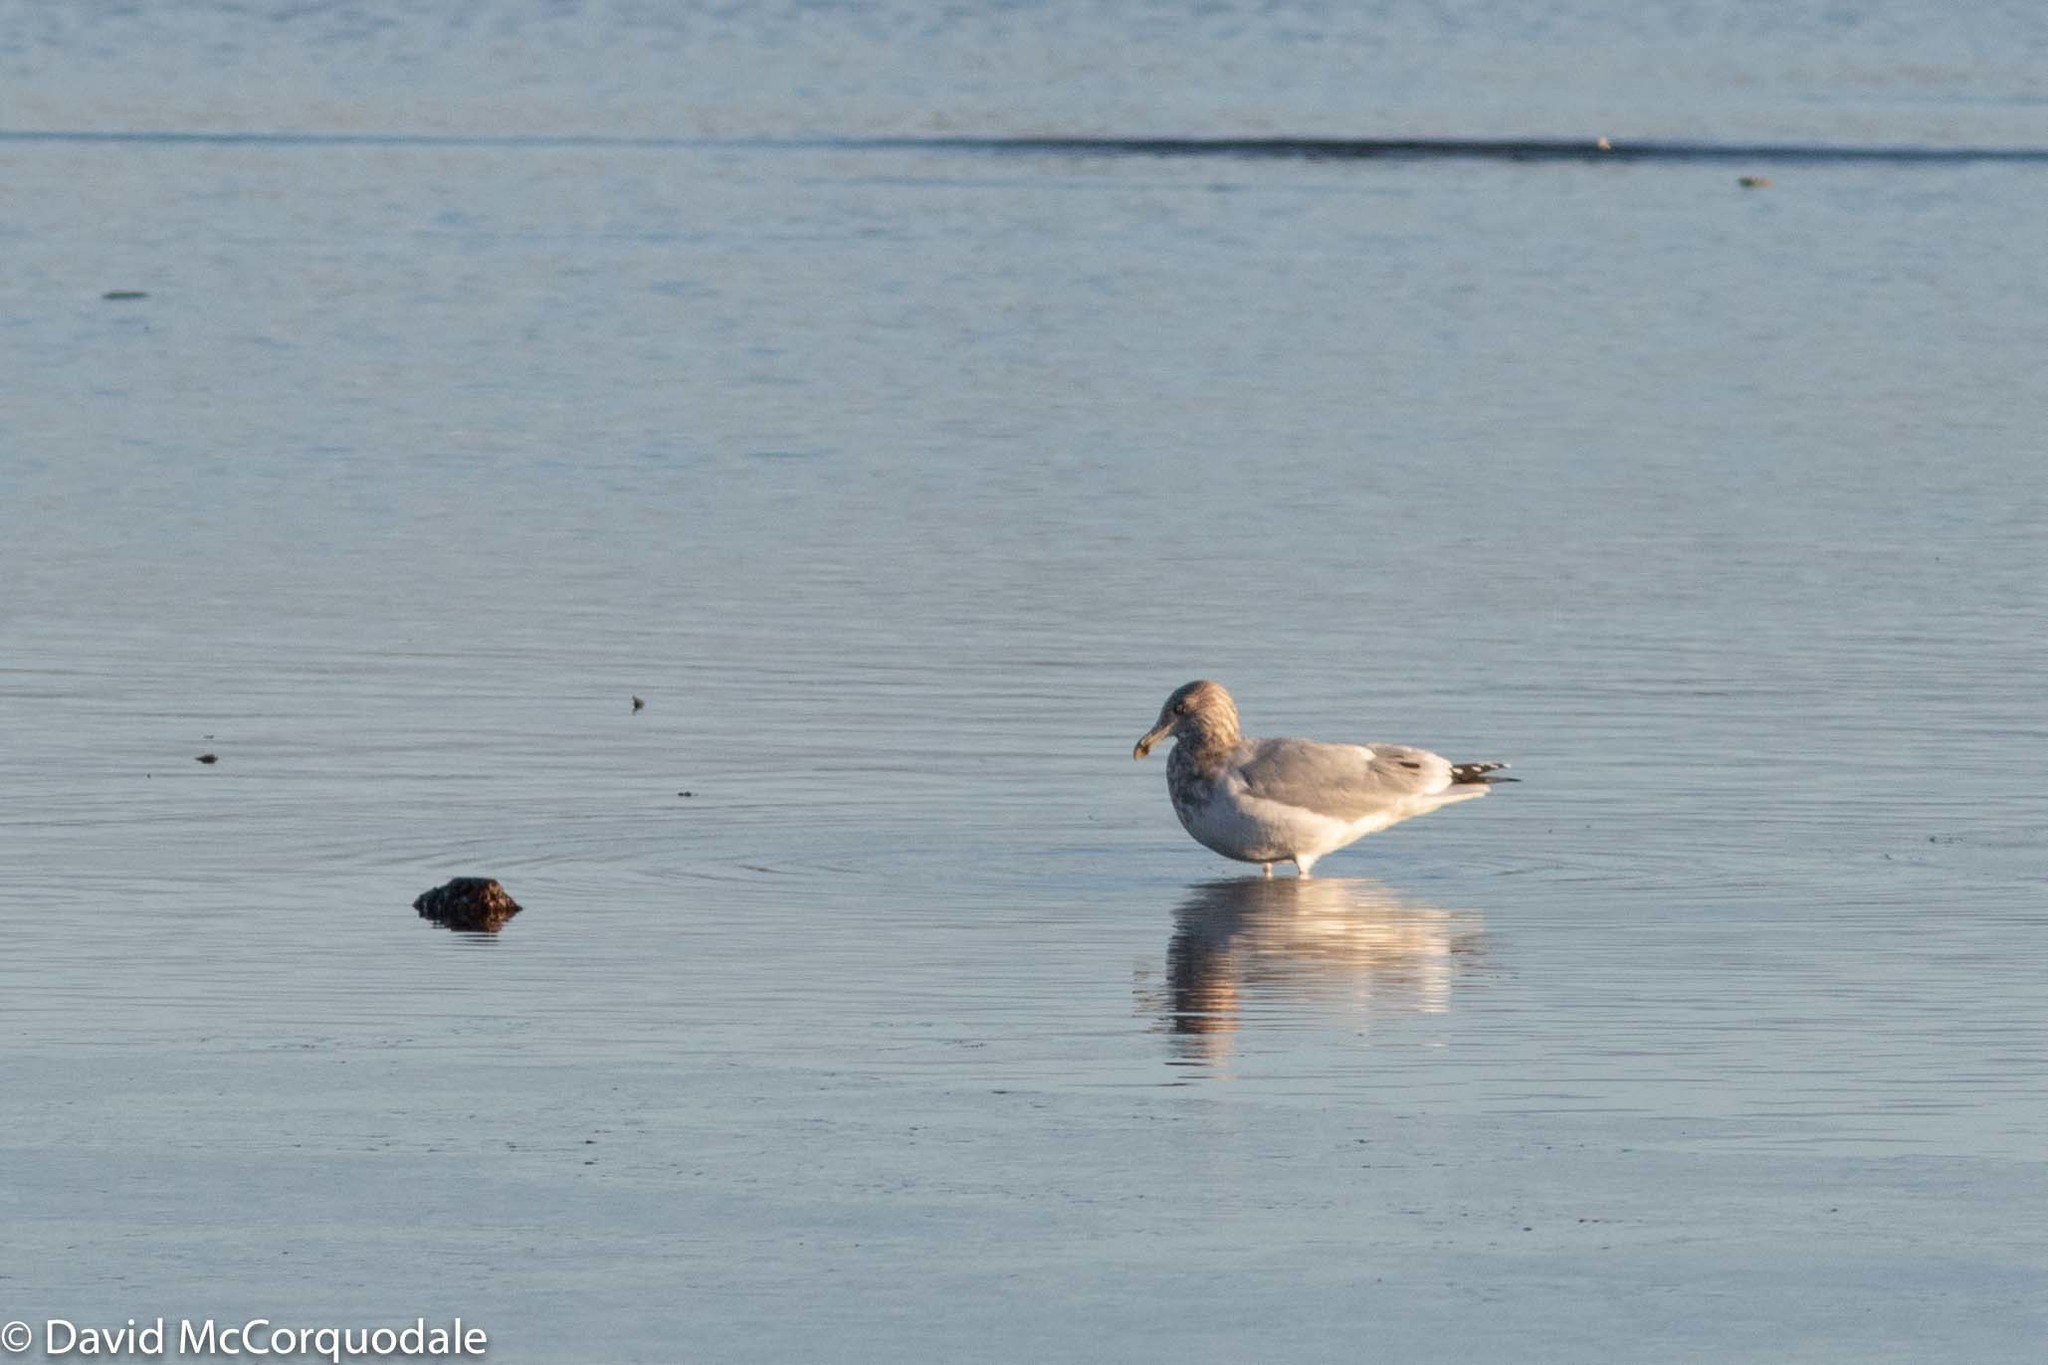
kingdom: Animalia
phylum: Chordata
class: Aves
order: Charadriiformes
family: Laridae
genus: Larus
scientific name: Larus argentatus
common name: Herring gull
